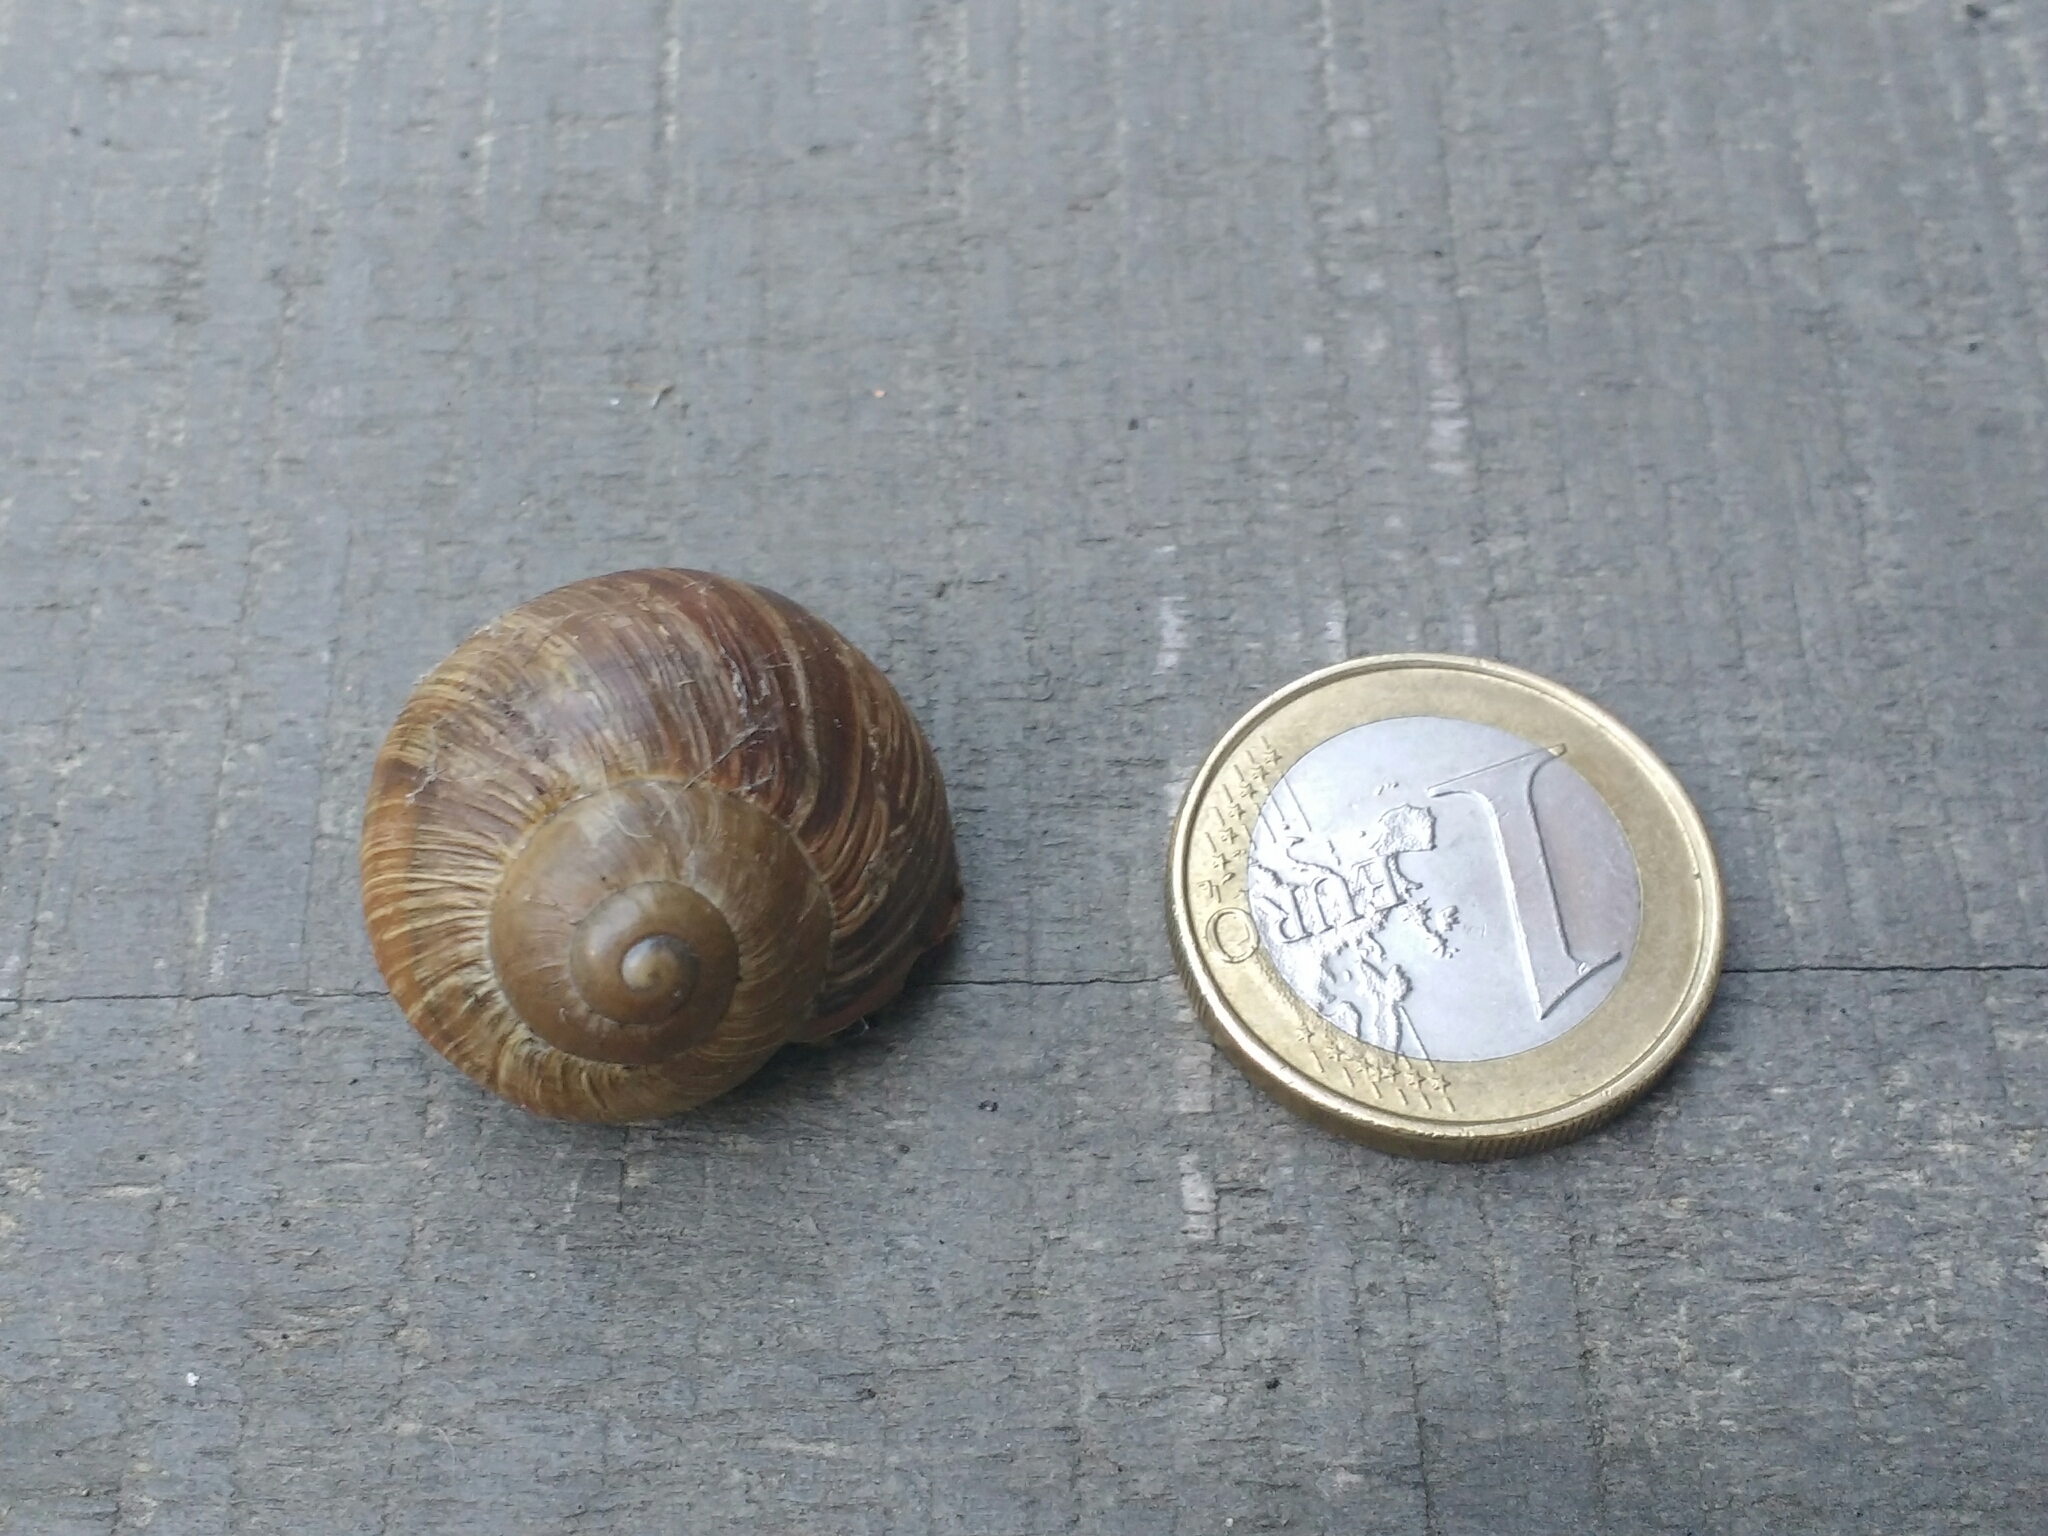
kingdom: Animalia
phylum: Mollusca
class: Gastropoda
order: Stylommatophora
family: Helicidae
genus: Helix
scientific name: Helix pomatia
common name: Roman snail
